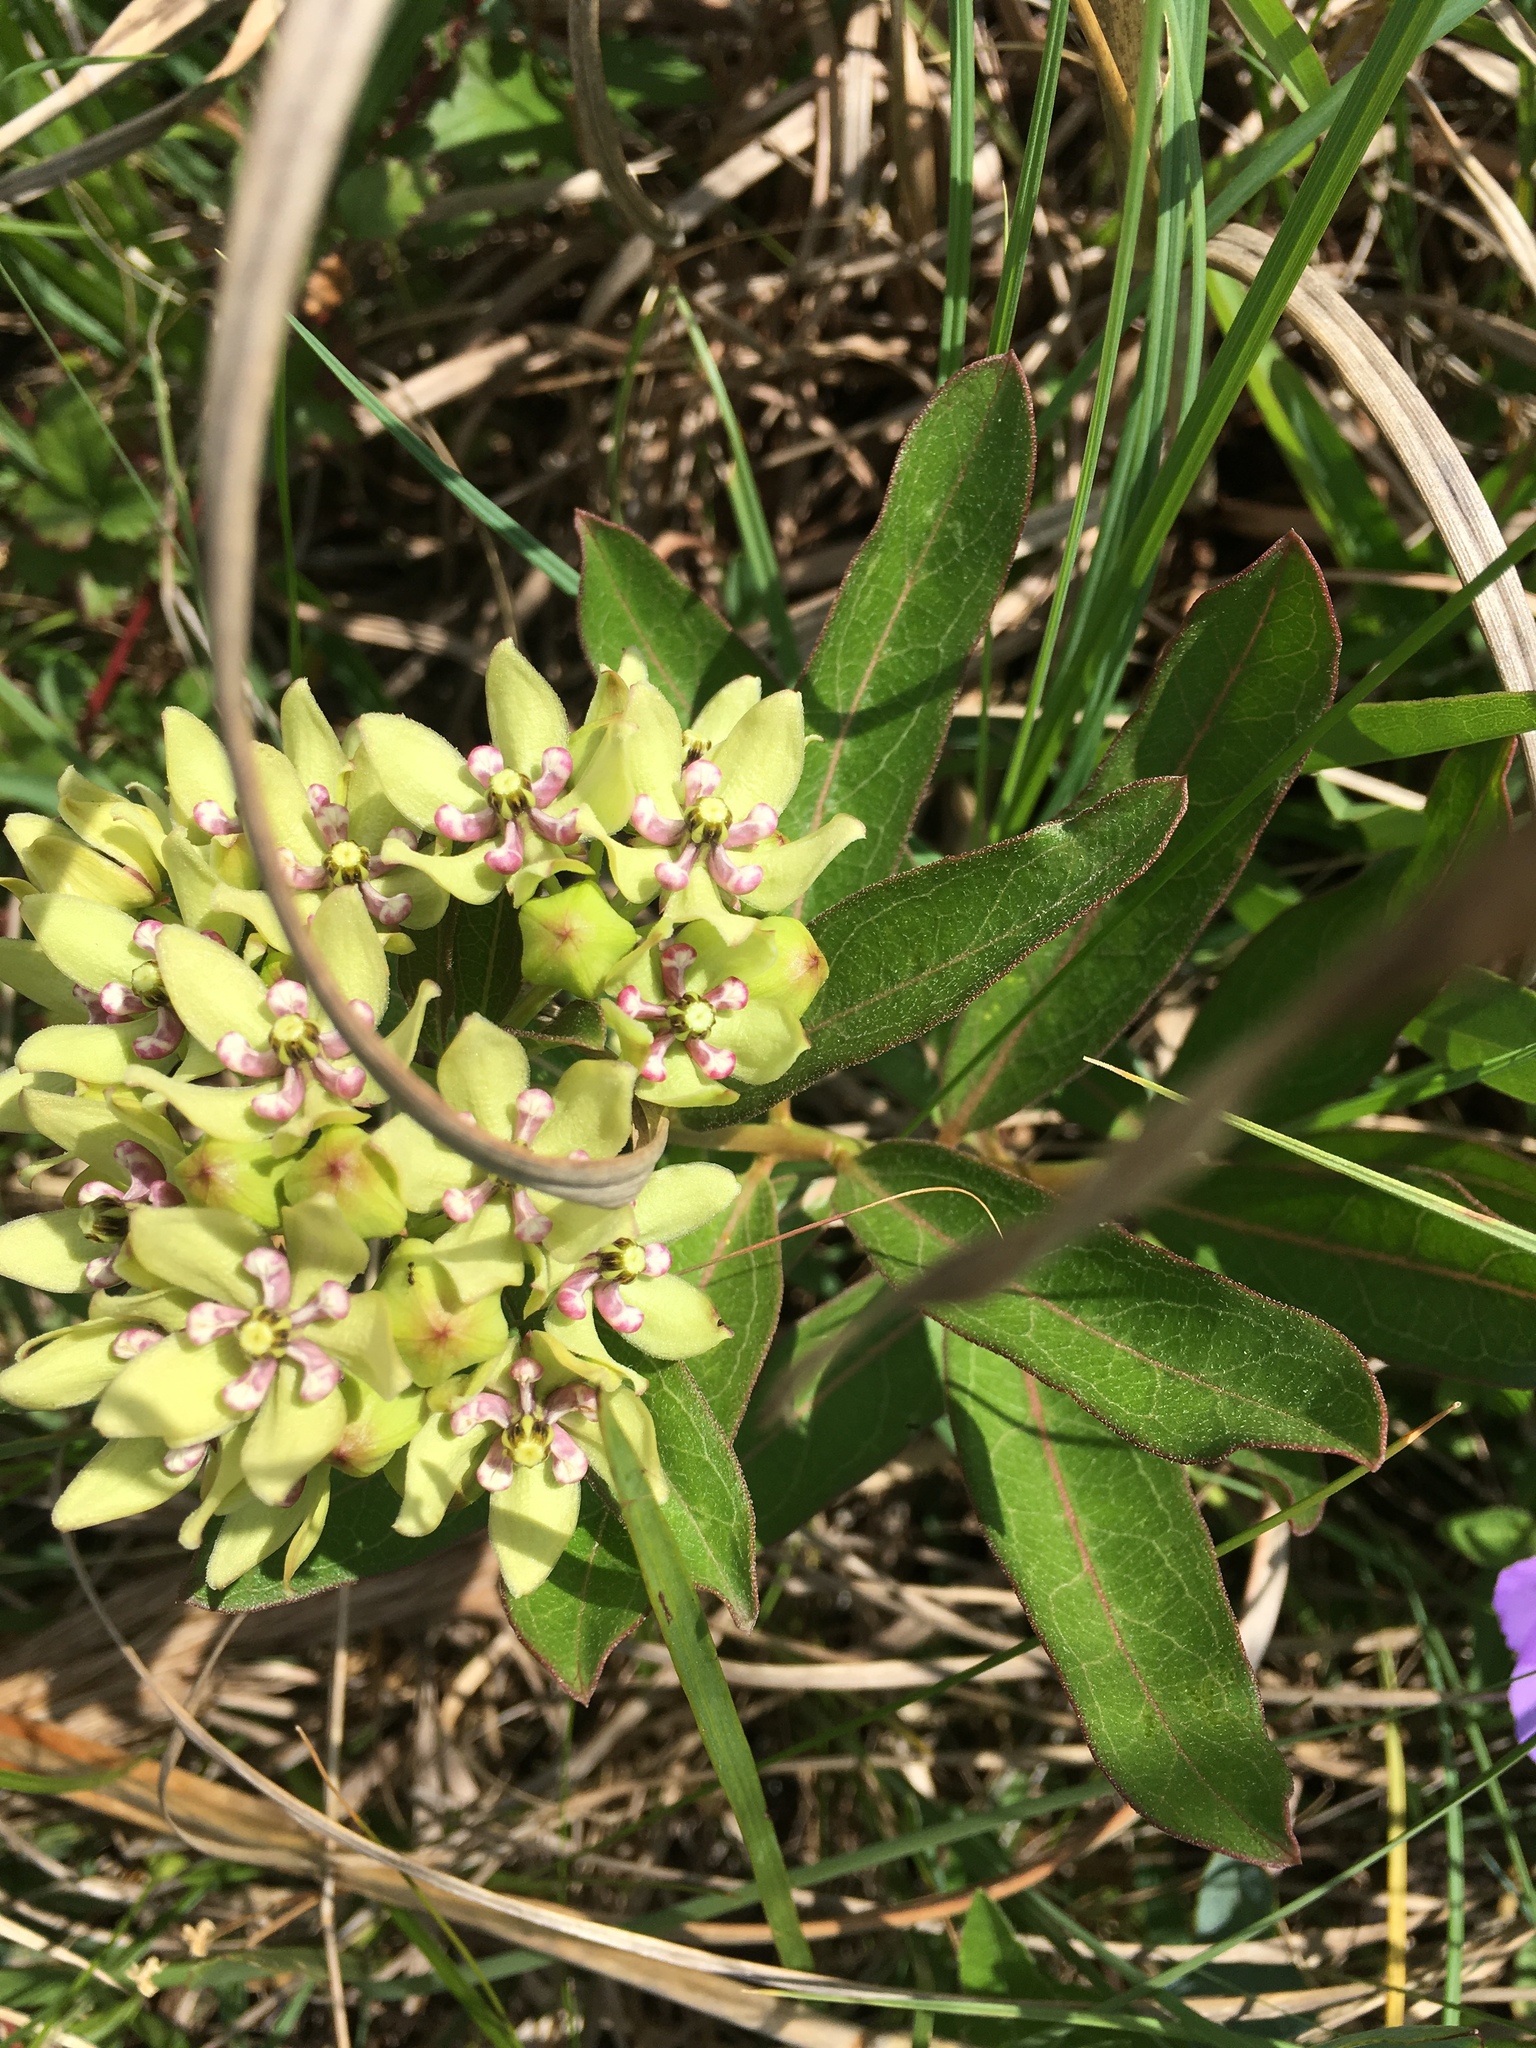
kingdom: Plantae
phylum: Tracheophyta
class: Magnoliopsida
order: Gentianales
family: Apocynaceae
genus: Asclepias
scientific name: Asclepias viridis
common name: Antelope-horns
